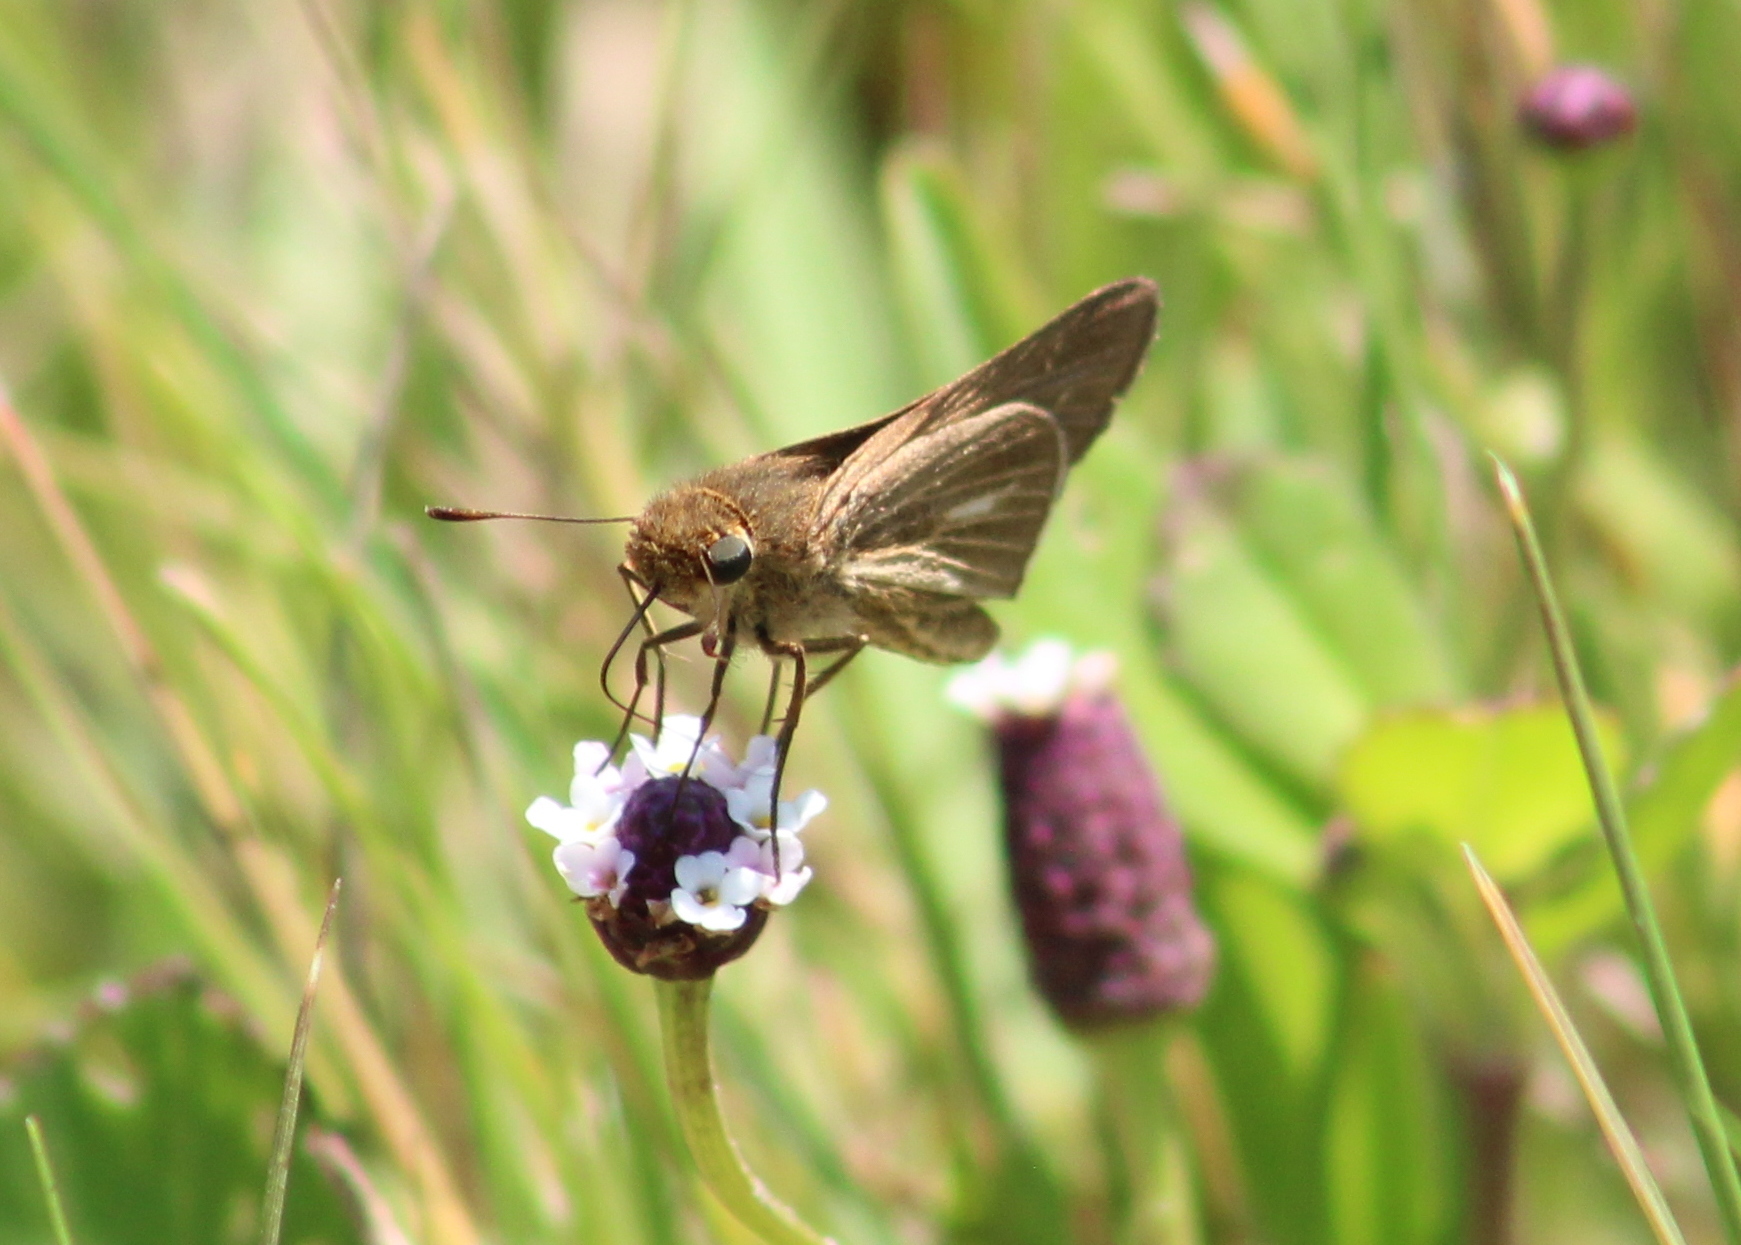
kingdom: Animalia
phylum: Arthropoda
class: Insecta
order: Lepidoptera
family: Hesperiidae
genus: Panoquina
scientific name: Panoquina panoquin
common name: Salt marsh skipper
